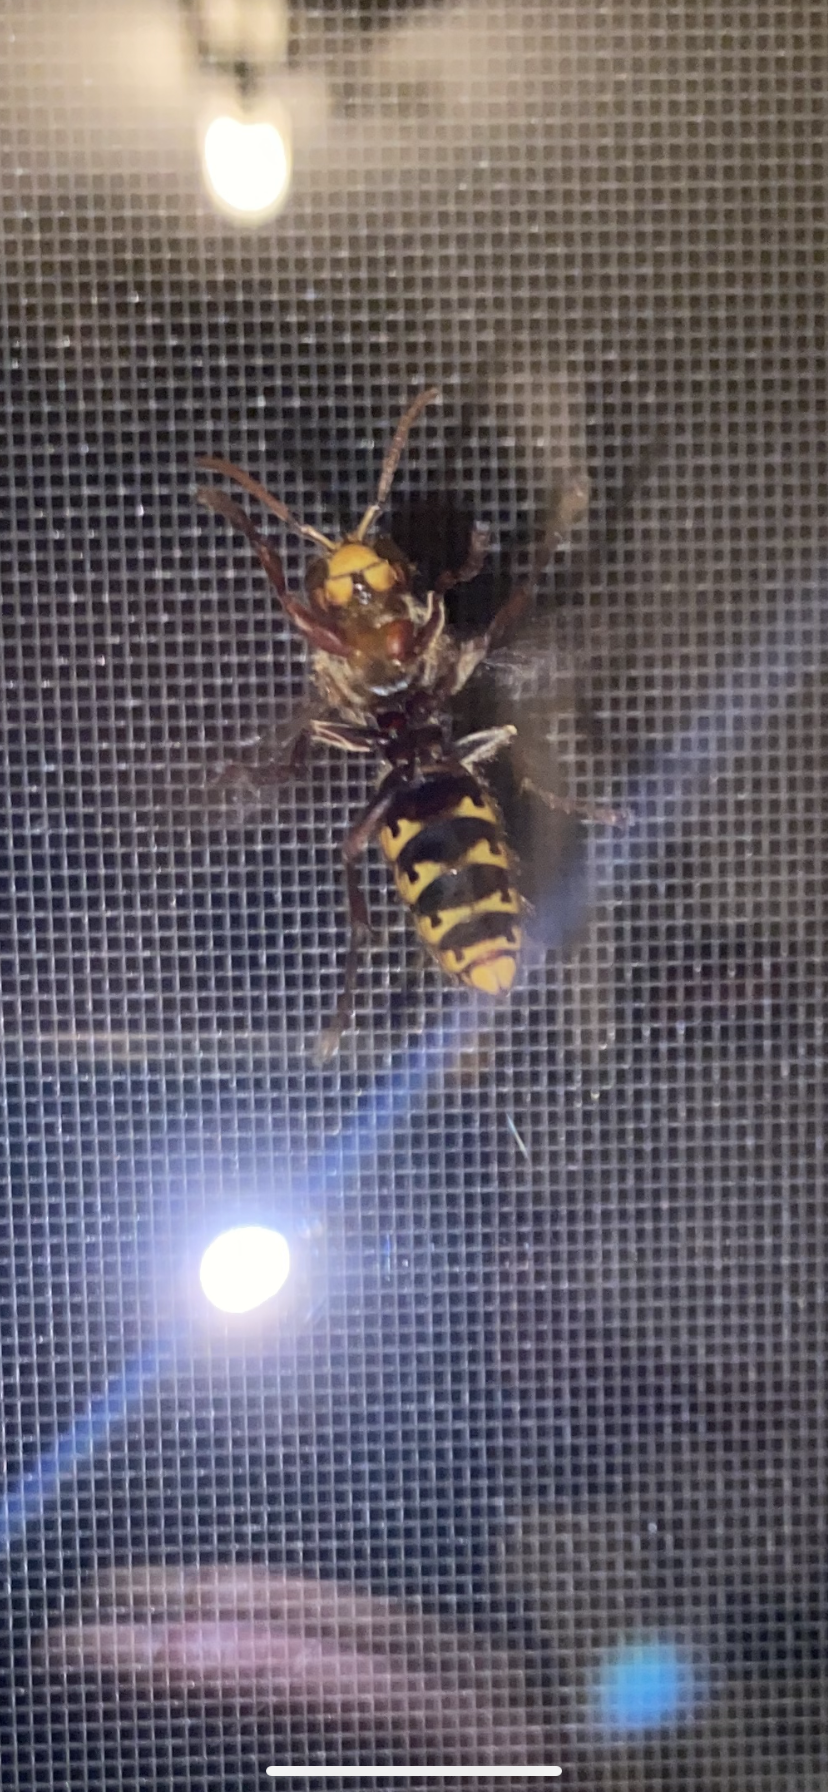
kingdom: Animalia
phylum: Arthropoda
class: Insecta
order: Hymenoptera
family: Vespidae
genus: Vespa
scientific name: Vespa crabro
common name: Hornet
